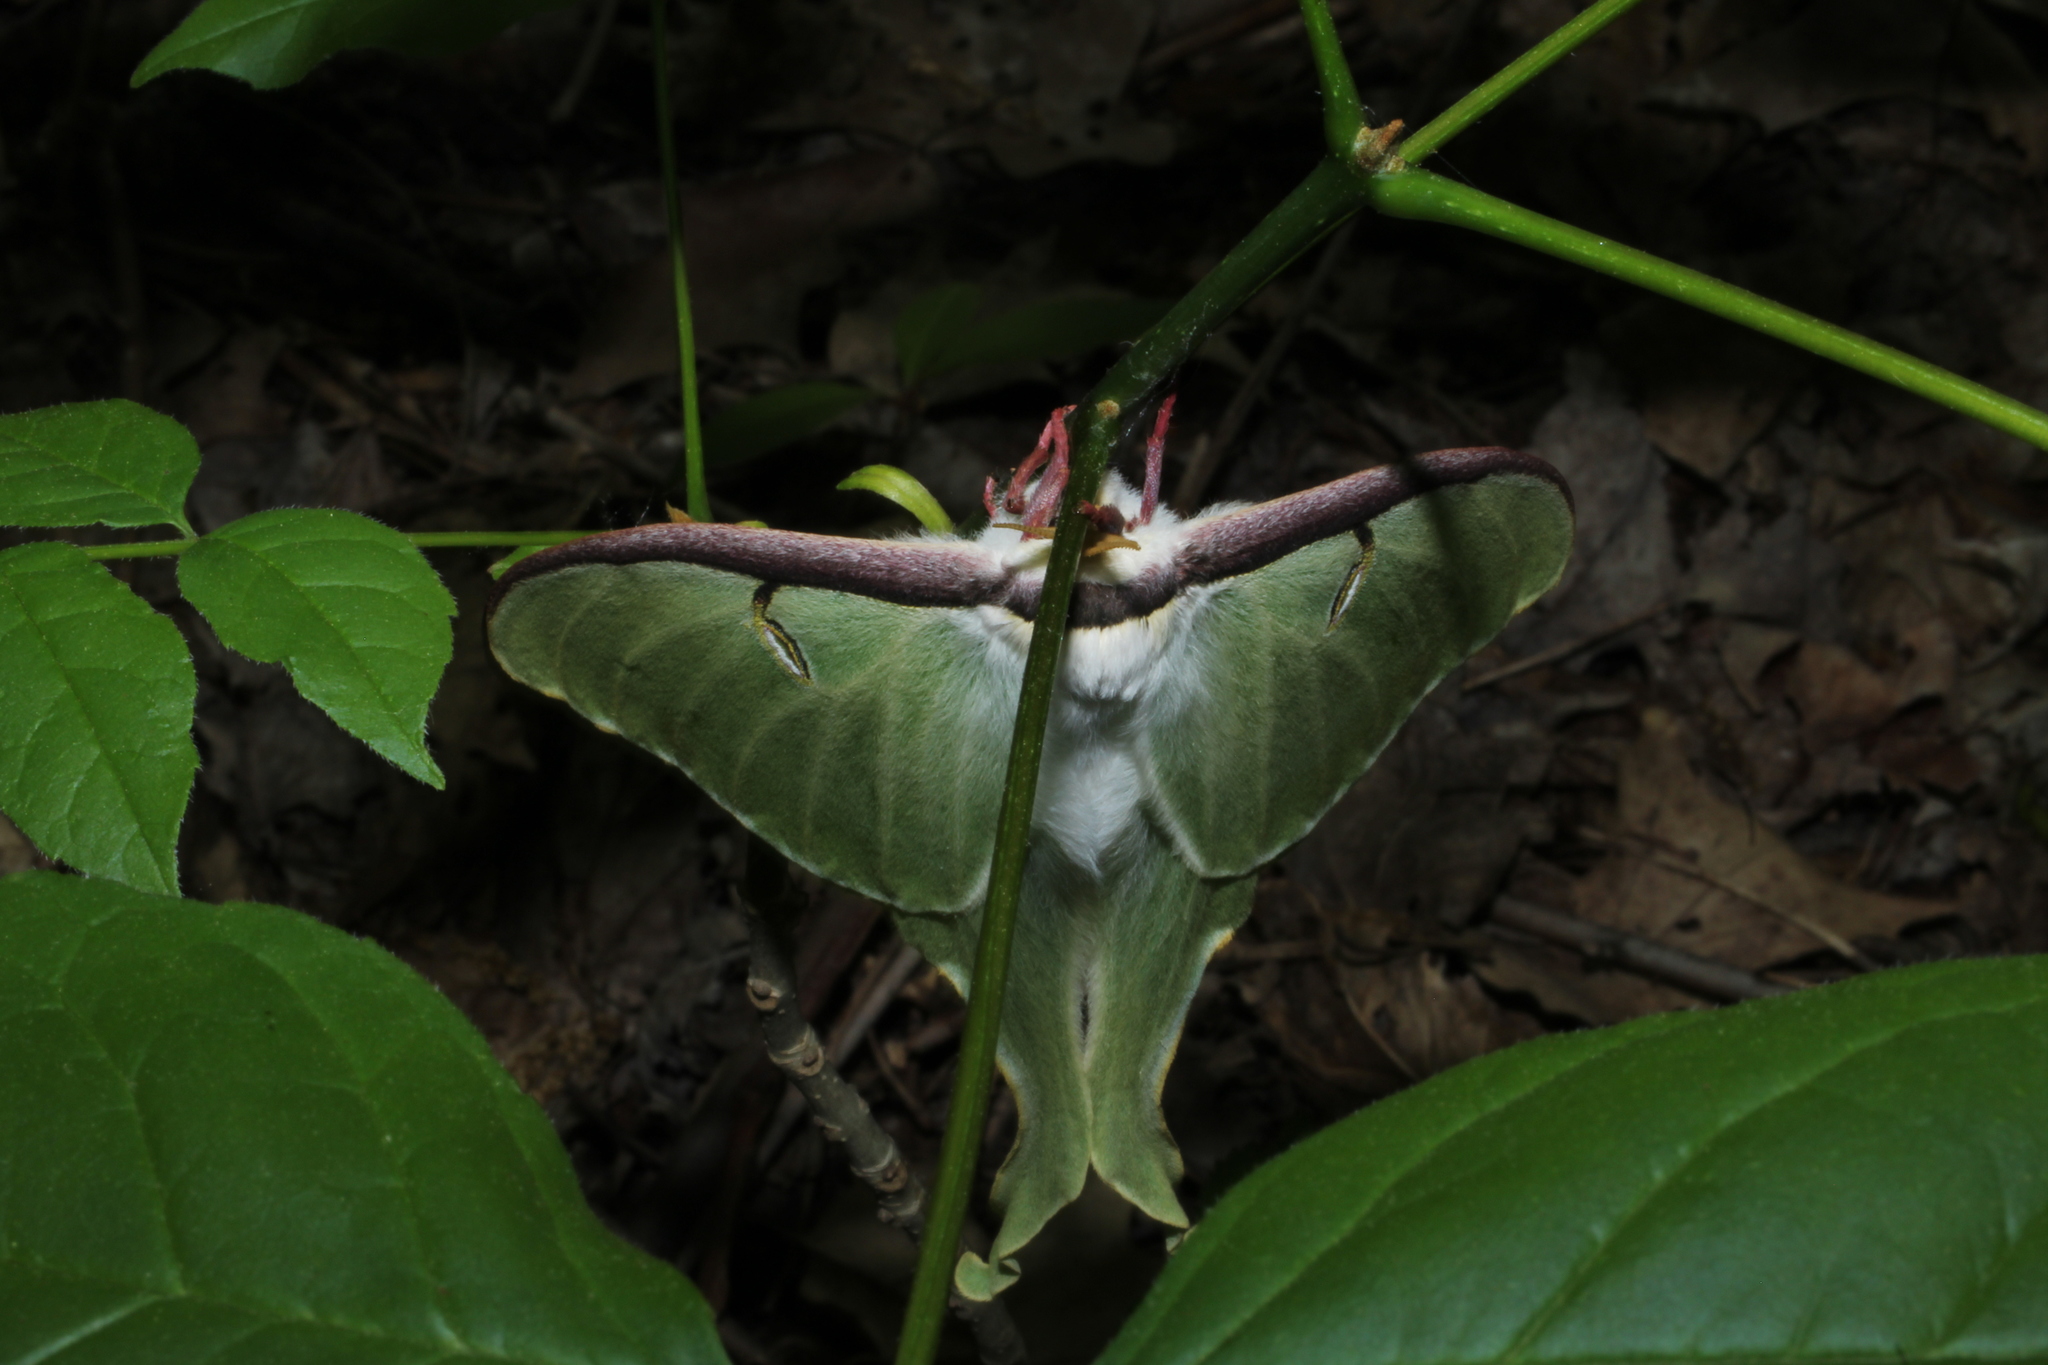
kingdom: Animalia
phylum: Arthropoda
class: Insecta
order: Lepidoptera
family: Saturniidae
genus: Actias
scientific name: Actias luna
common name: Luna moth
